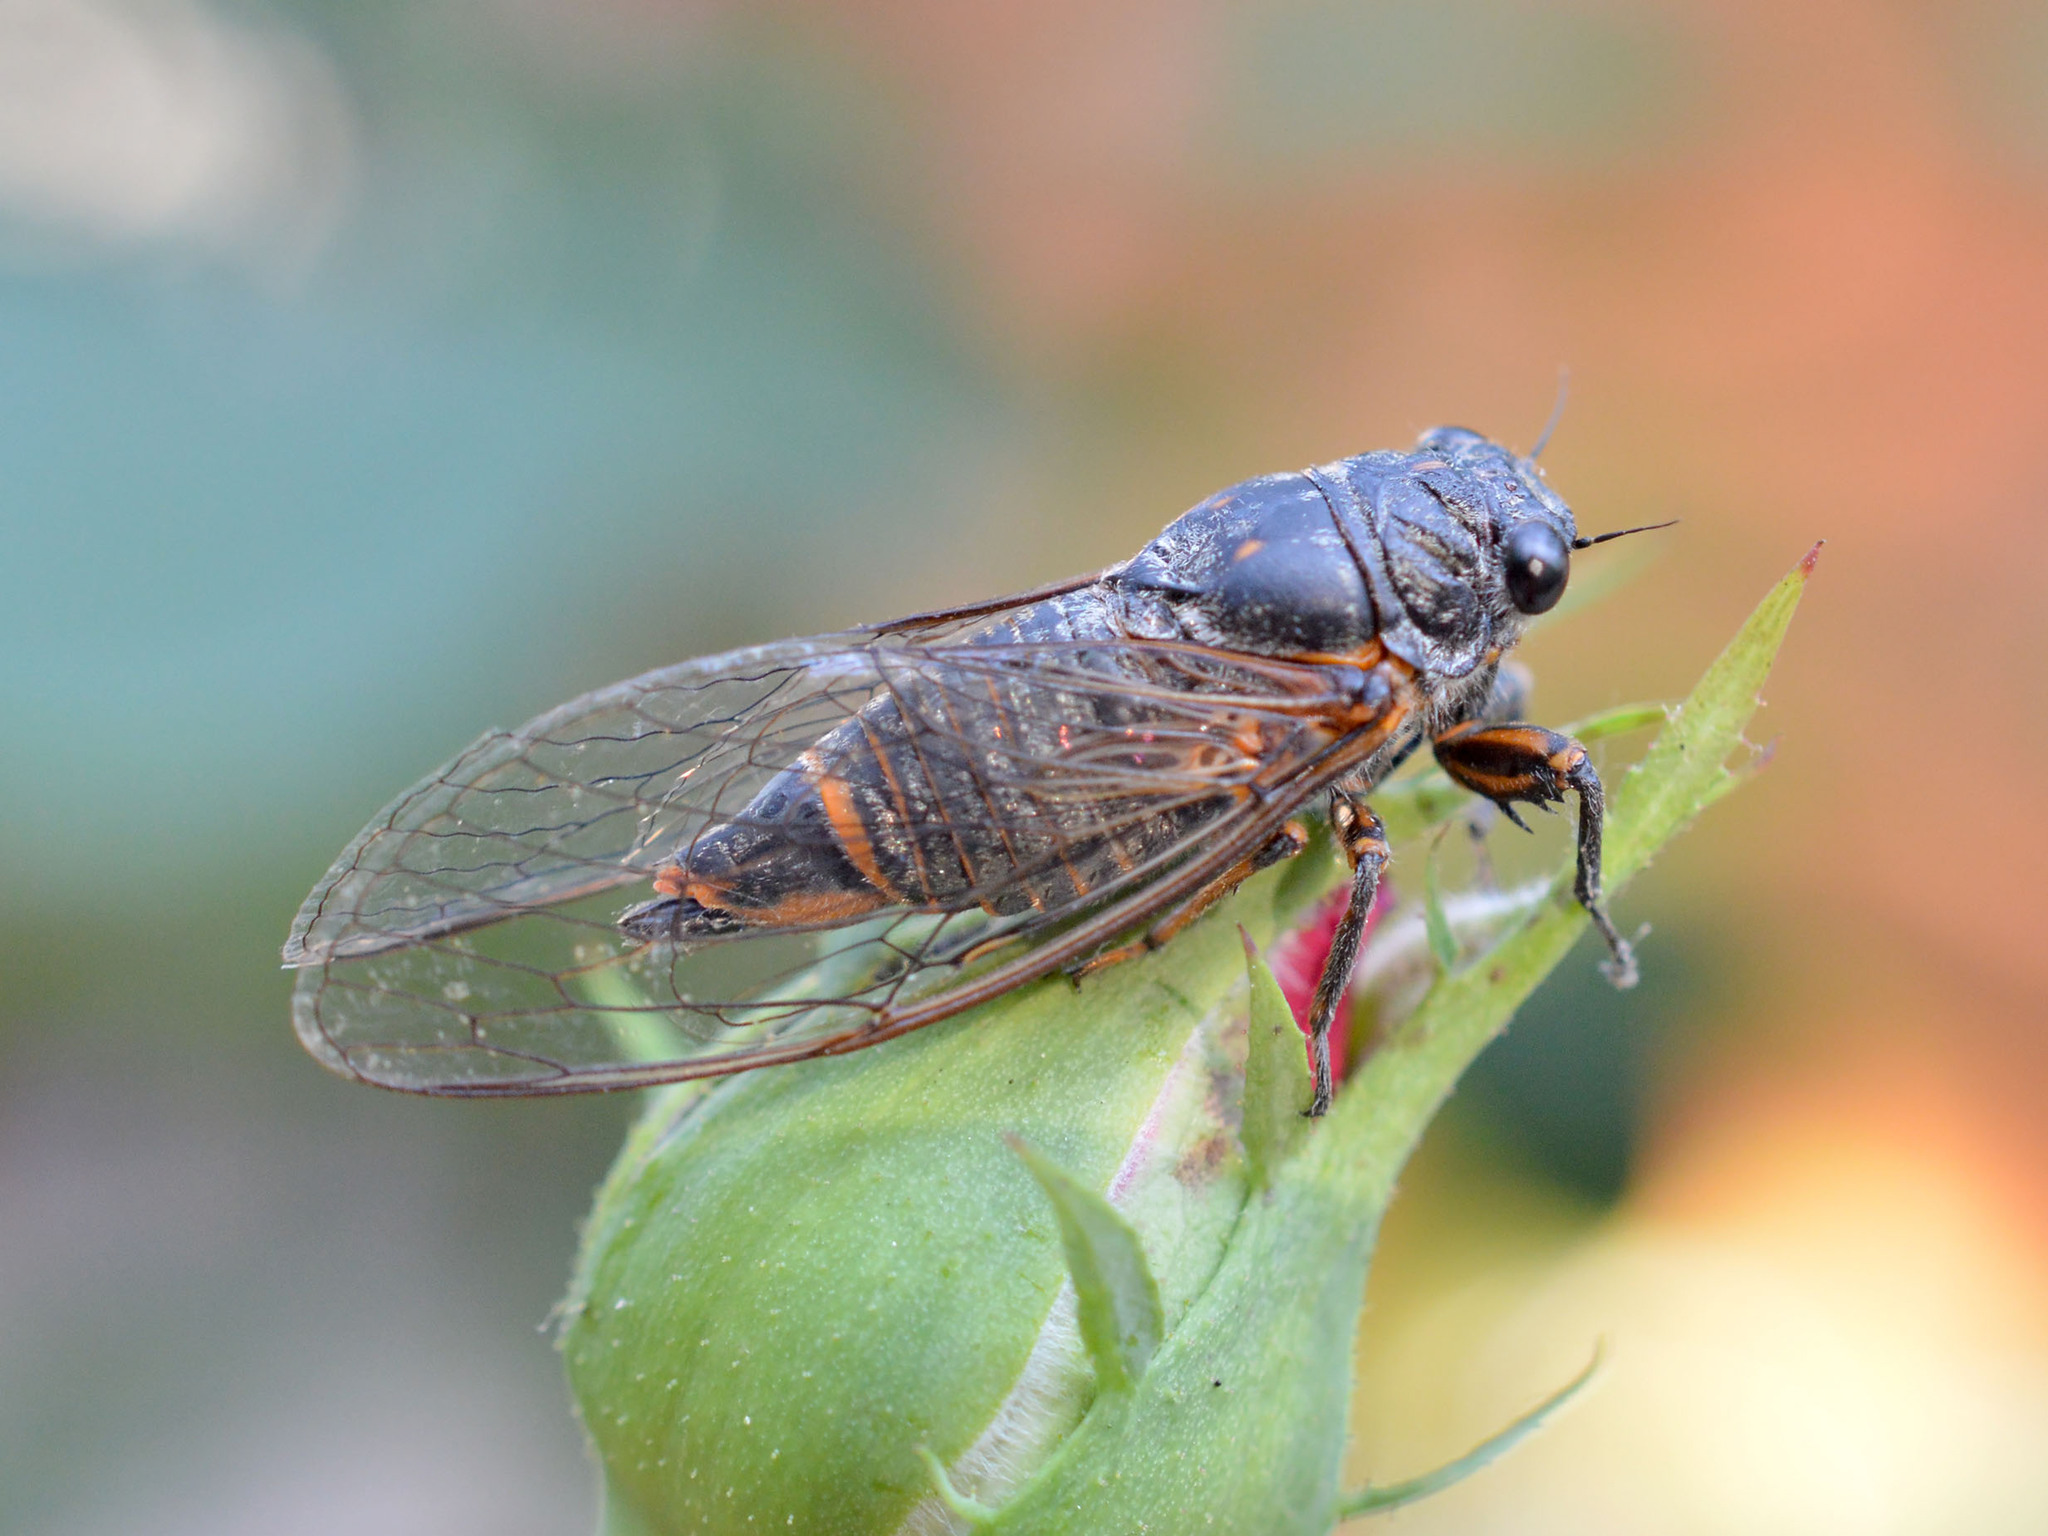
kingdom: Animalia
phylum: Arthropoda
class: Insecta
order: Hemiptera
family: Cicadidae
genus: Dimissalna
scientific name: Dimissalna dimissa
